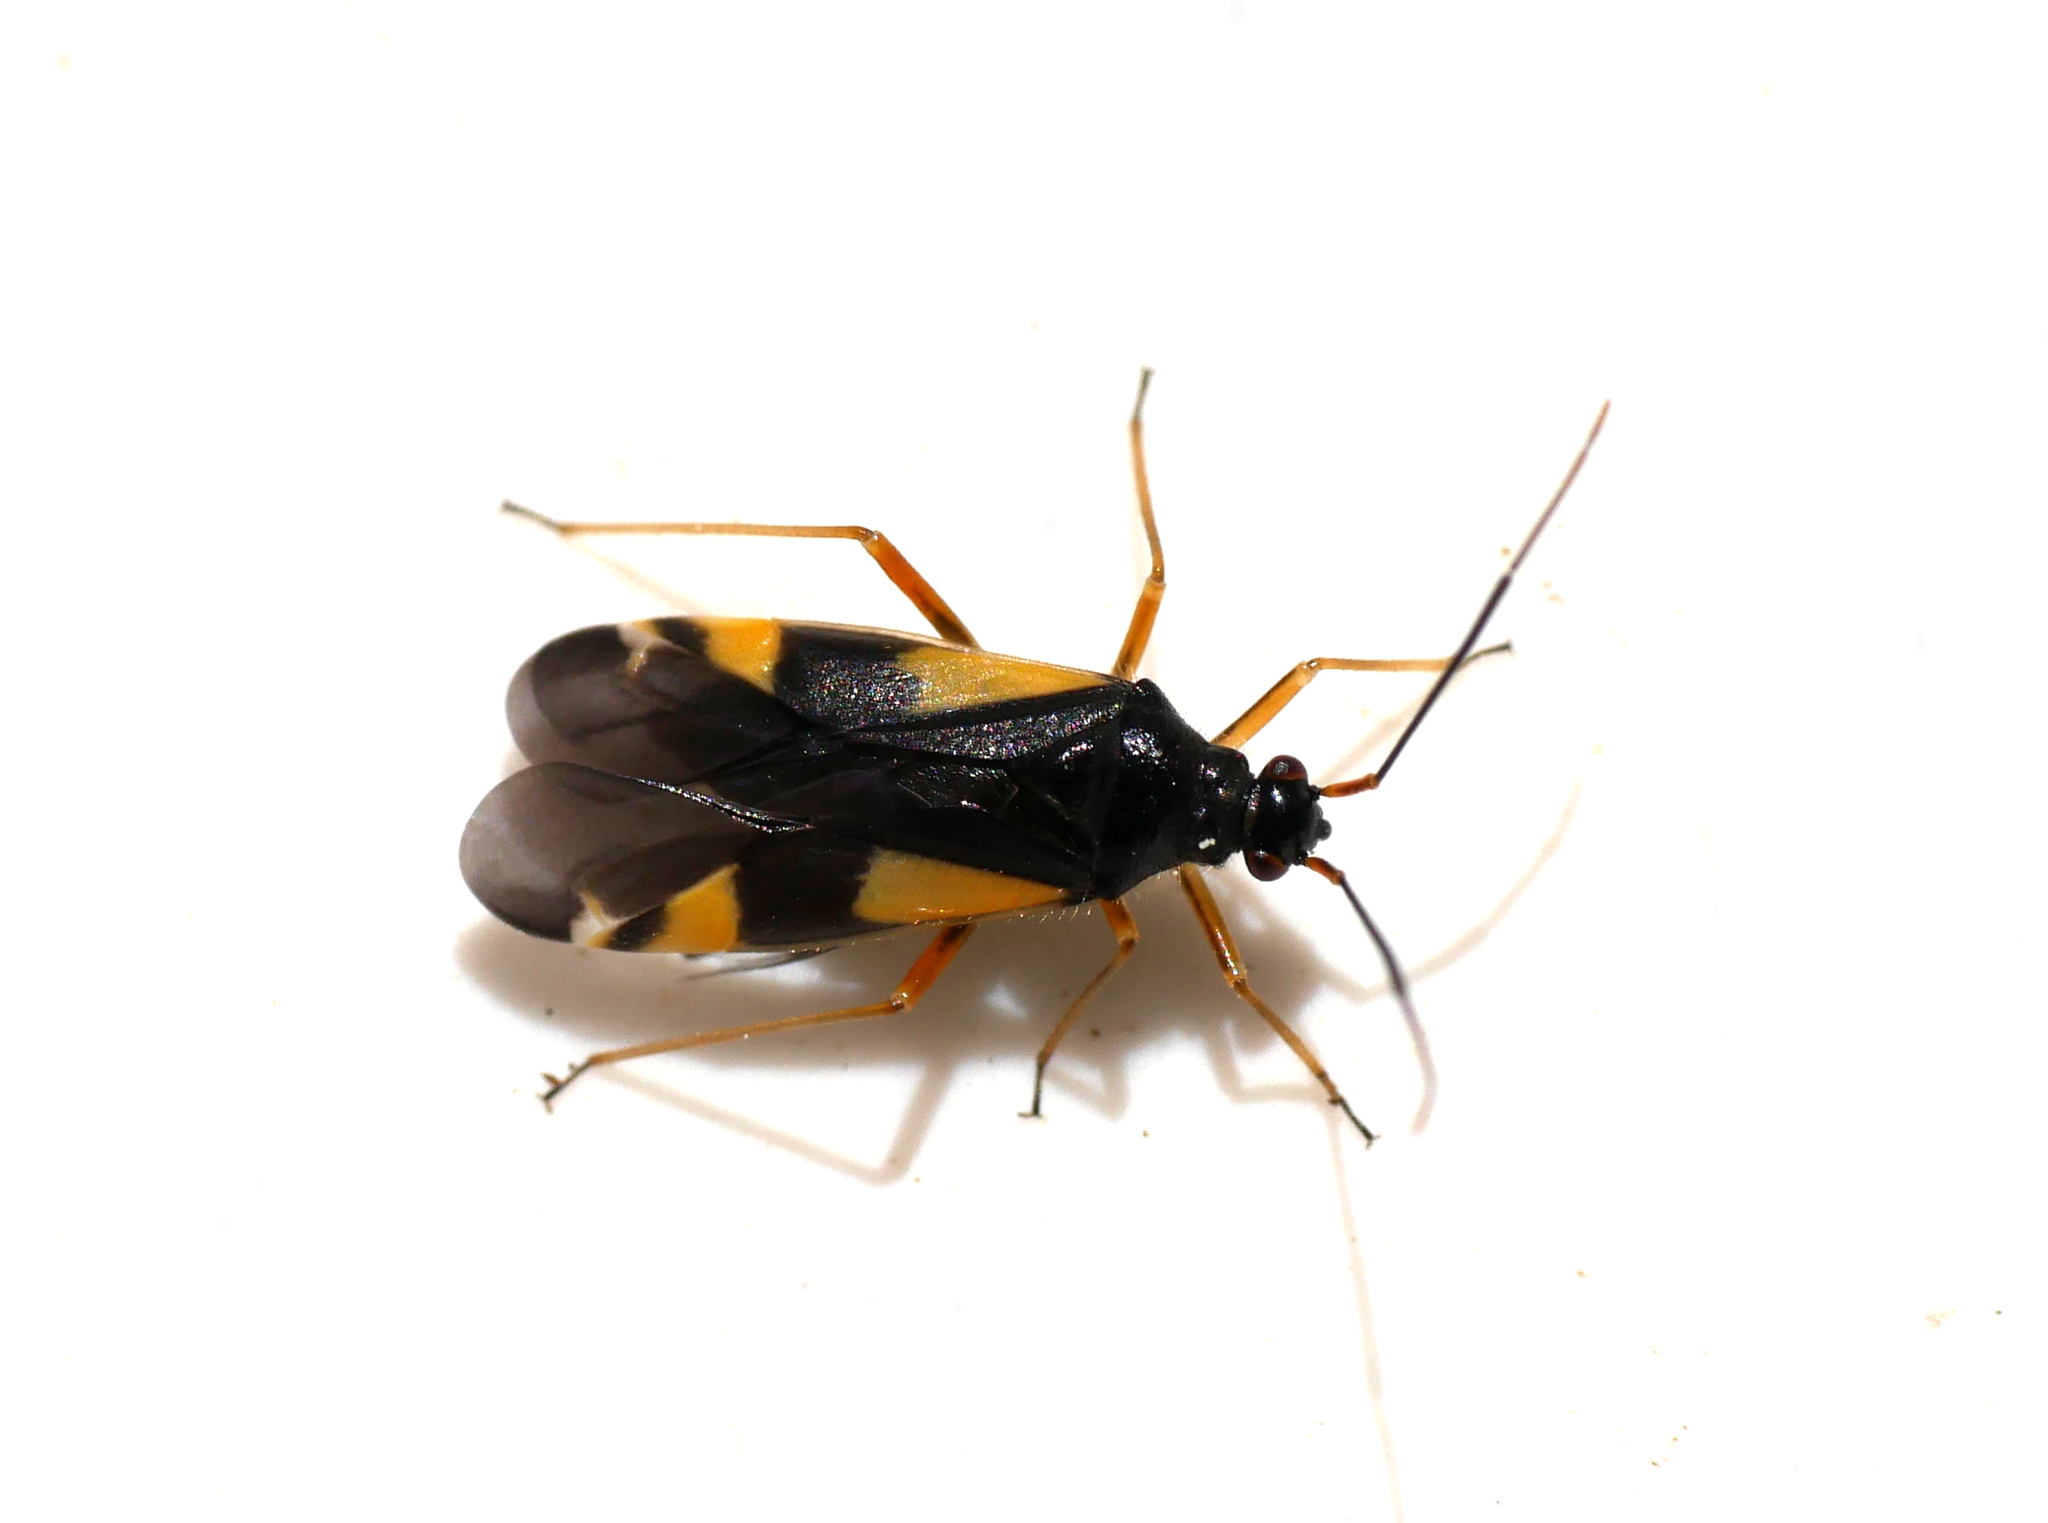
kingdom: Animalia
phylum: Arthropoda
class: Insecta
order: Hemiptera
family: Miridae
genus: Dryophilocoris
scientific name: Dryophilocoris flavoquadrimaculatus
